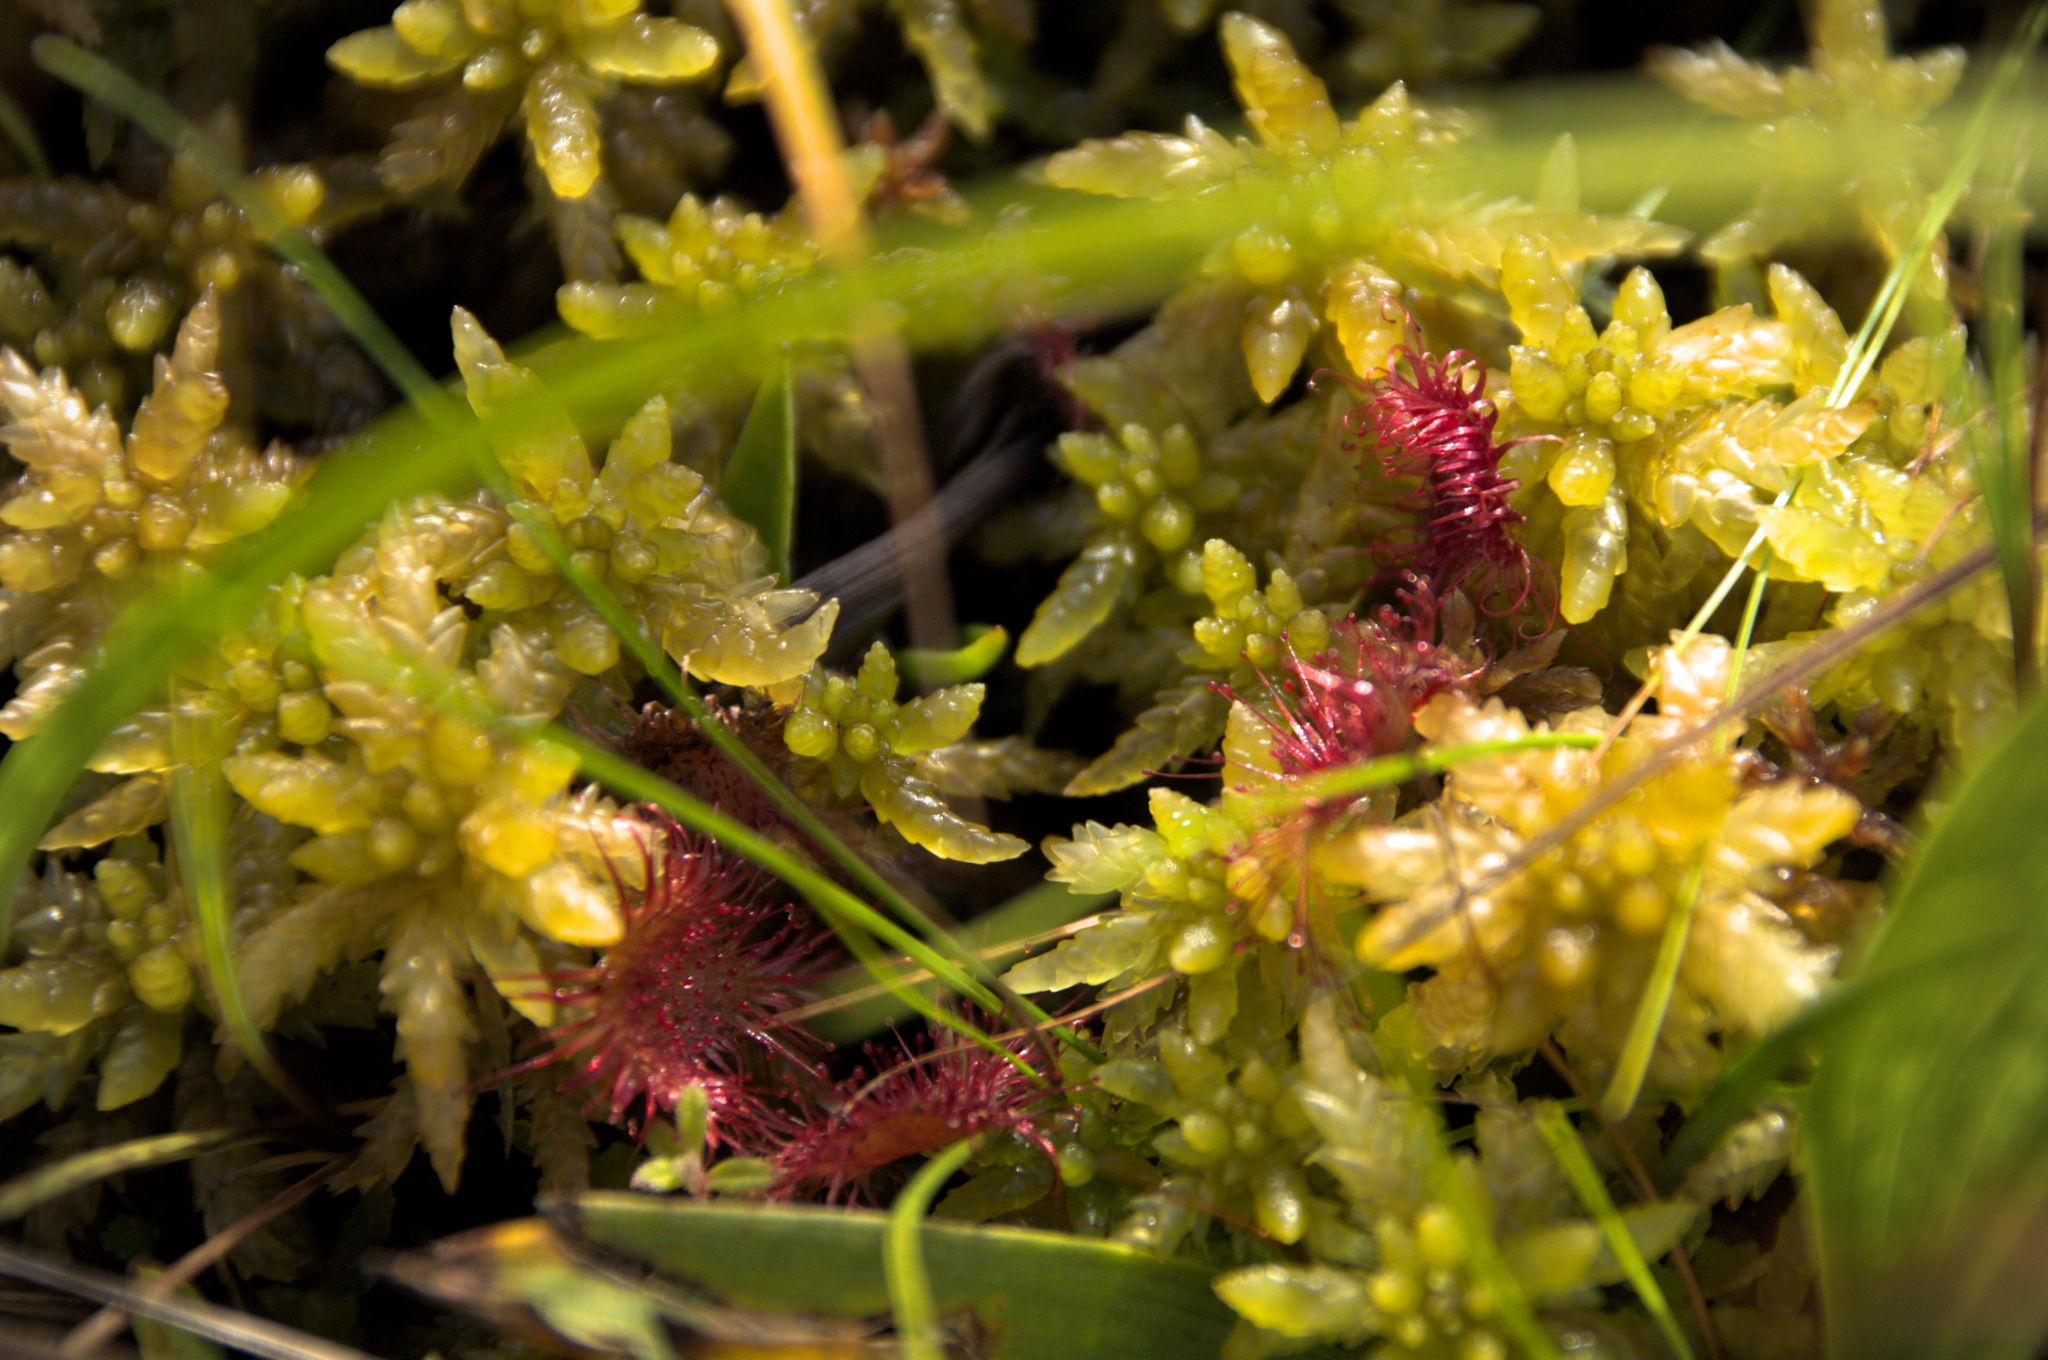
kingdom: Plantae
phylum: Tracheophyta
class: Magnoliopsida
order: Caryophyllales
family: Droseraceae
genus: Drosera
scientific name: Drosera rotundifolia
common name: Round-leaved sundew
